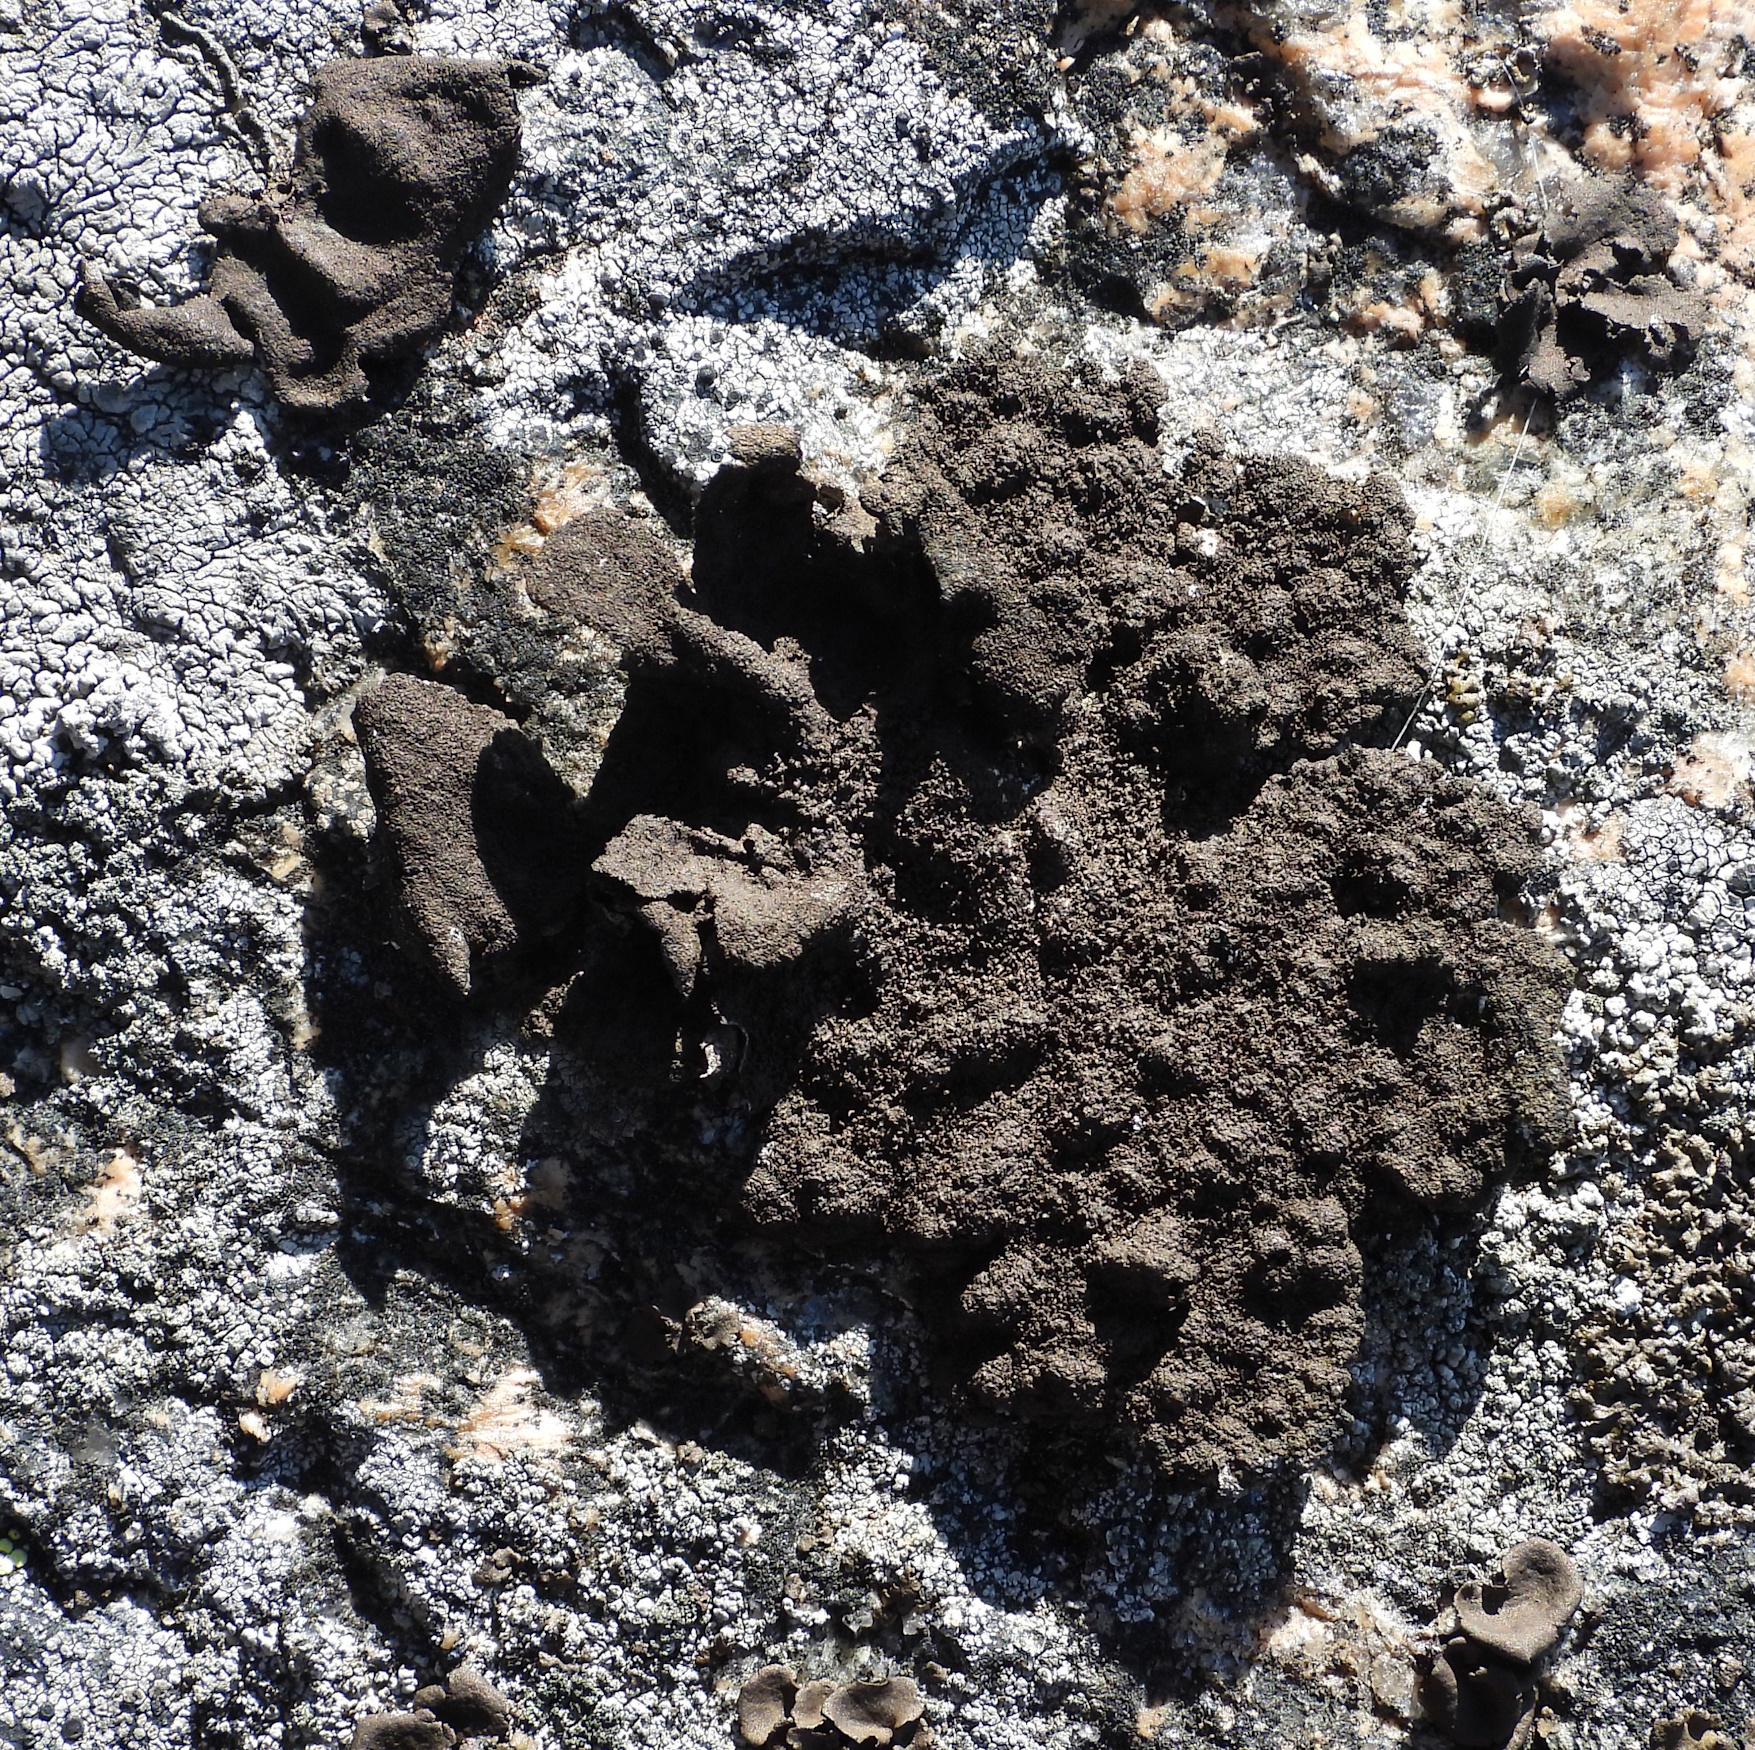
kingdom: Fungi
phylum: Ascomycota
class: Lecanoromycetes
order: Umbilicariales
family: Umbilicariaceae
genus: Umbilicaria
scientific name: Umbilicaria deusta
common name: Peppered rock tripe
